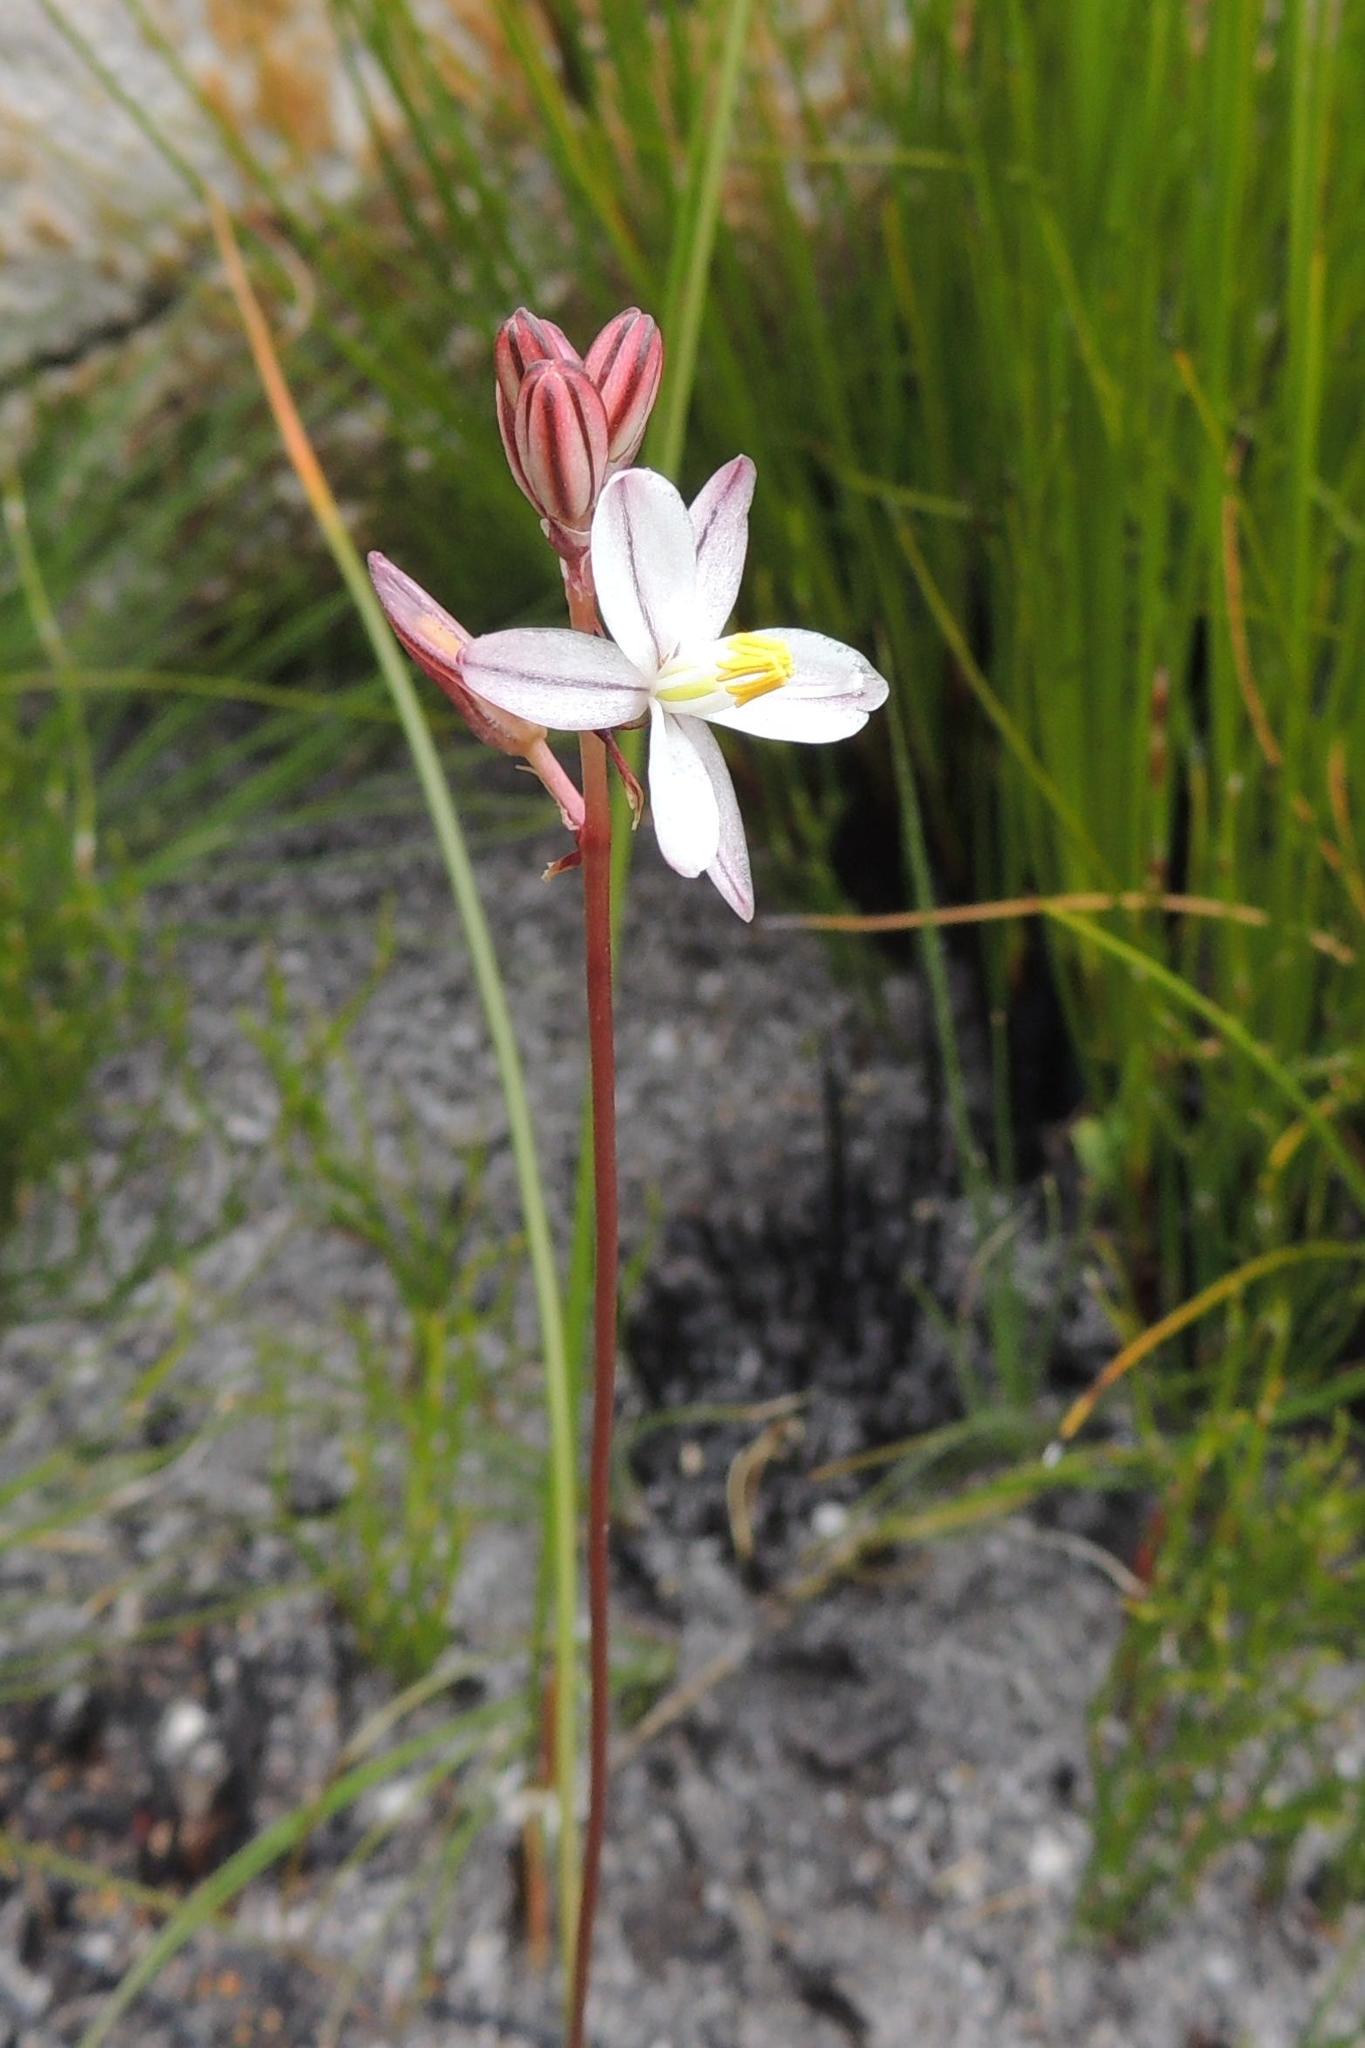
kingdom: Plantae
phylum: Tracheophyta
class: Liliopsida
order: Asparagales
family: Asparagaceae
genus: Drimia
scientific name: Drimia exuviata
